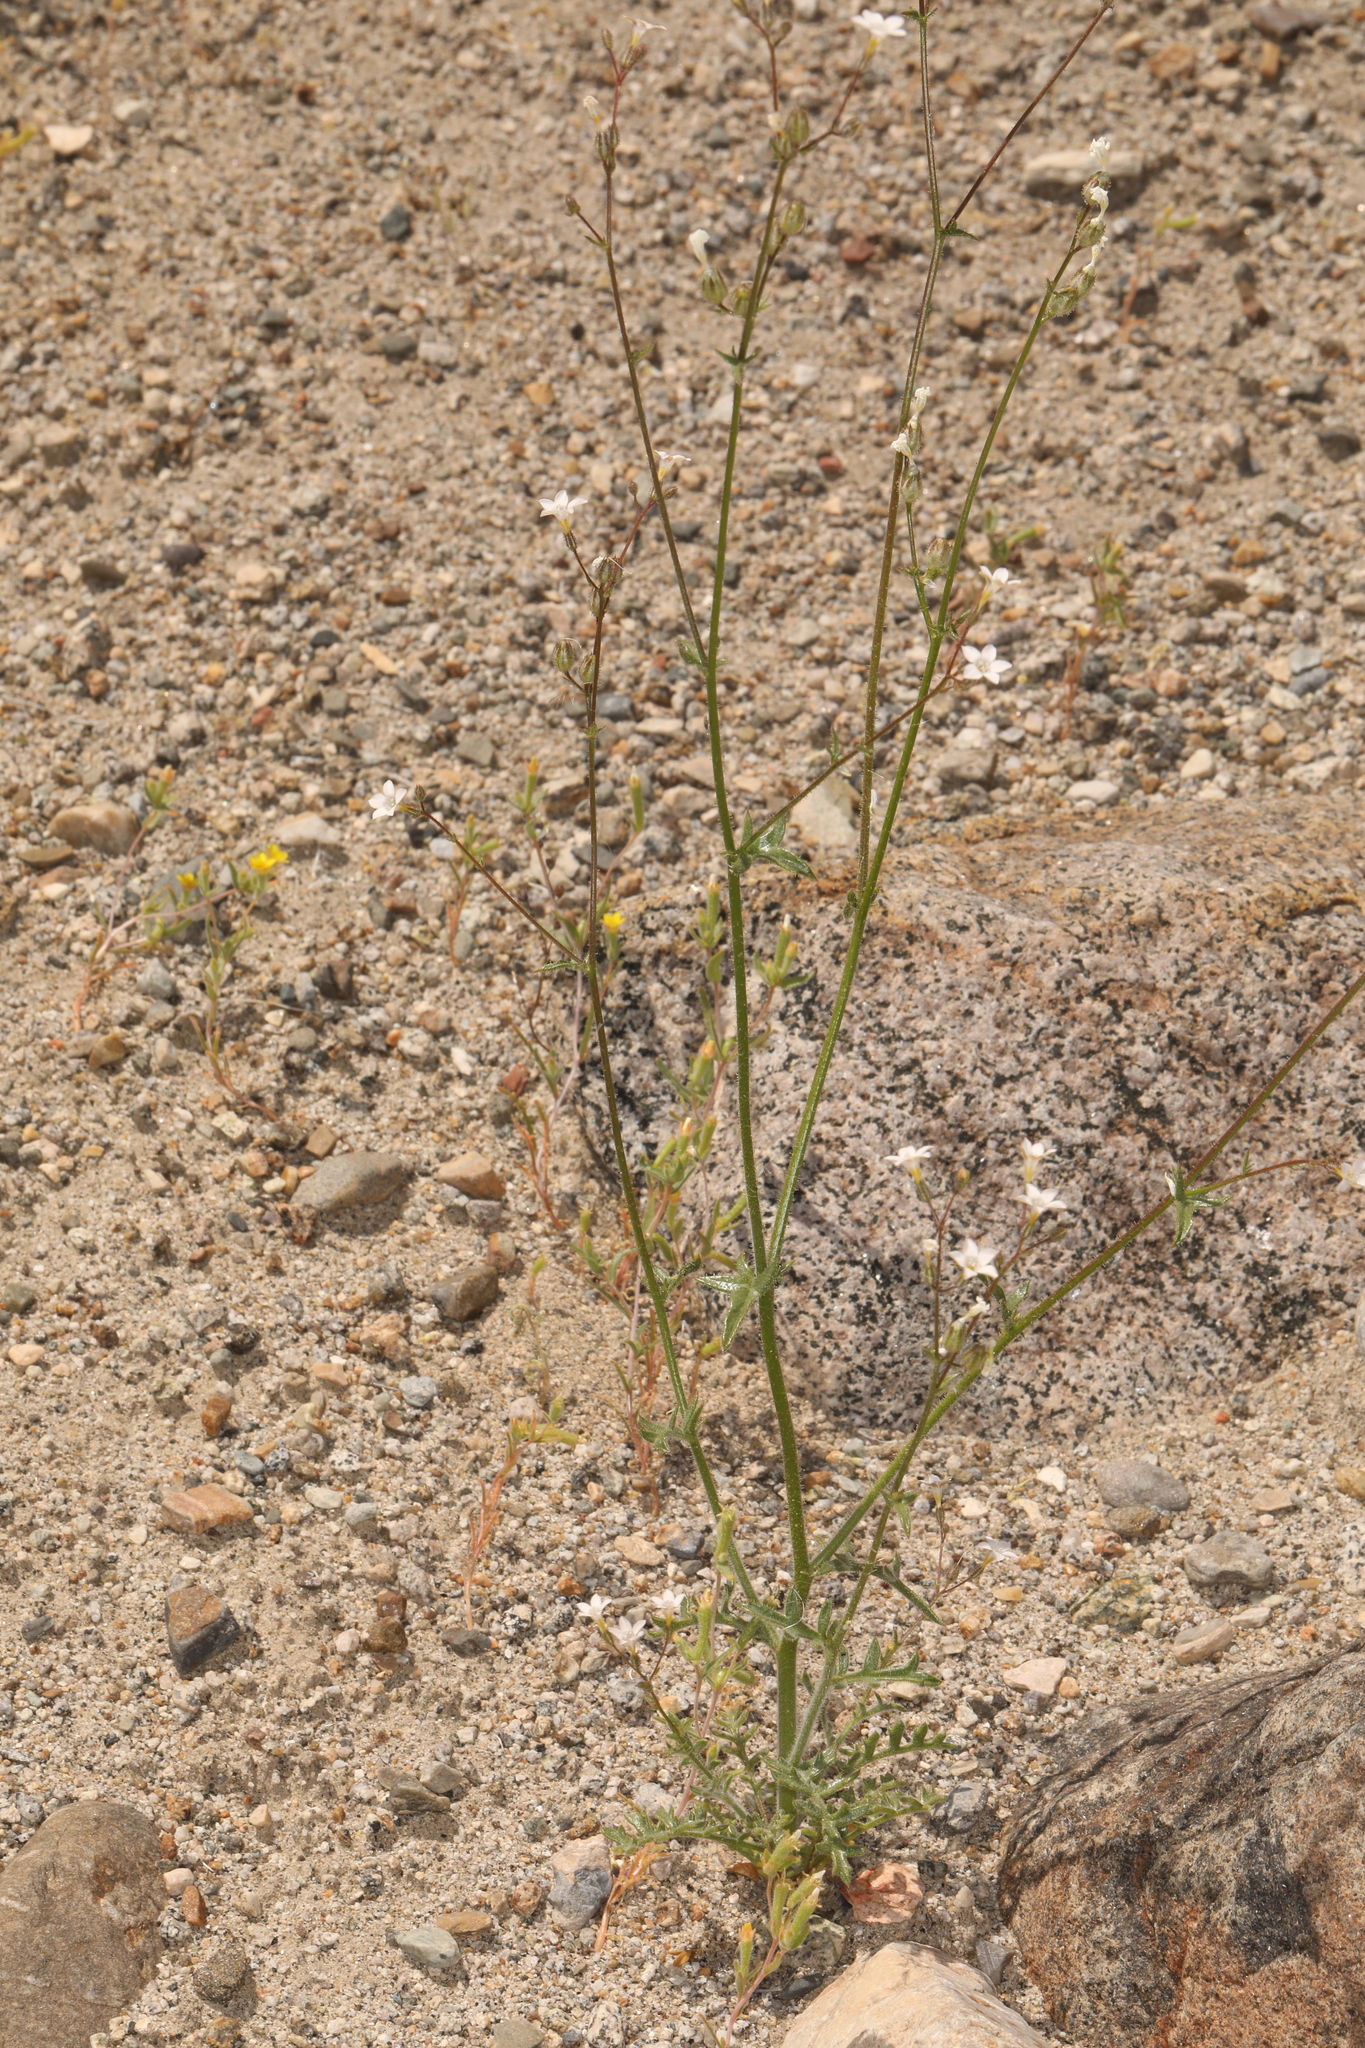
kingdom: Plantae
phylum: Tracheophyta
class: Magnoliopsida
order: Ericales
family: Polemoniaceae
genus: Gilia
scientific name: Gilia stellata
